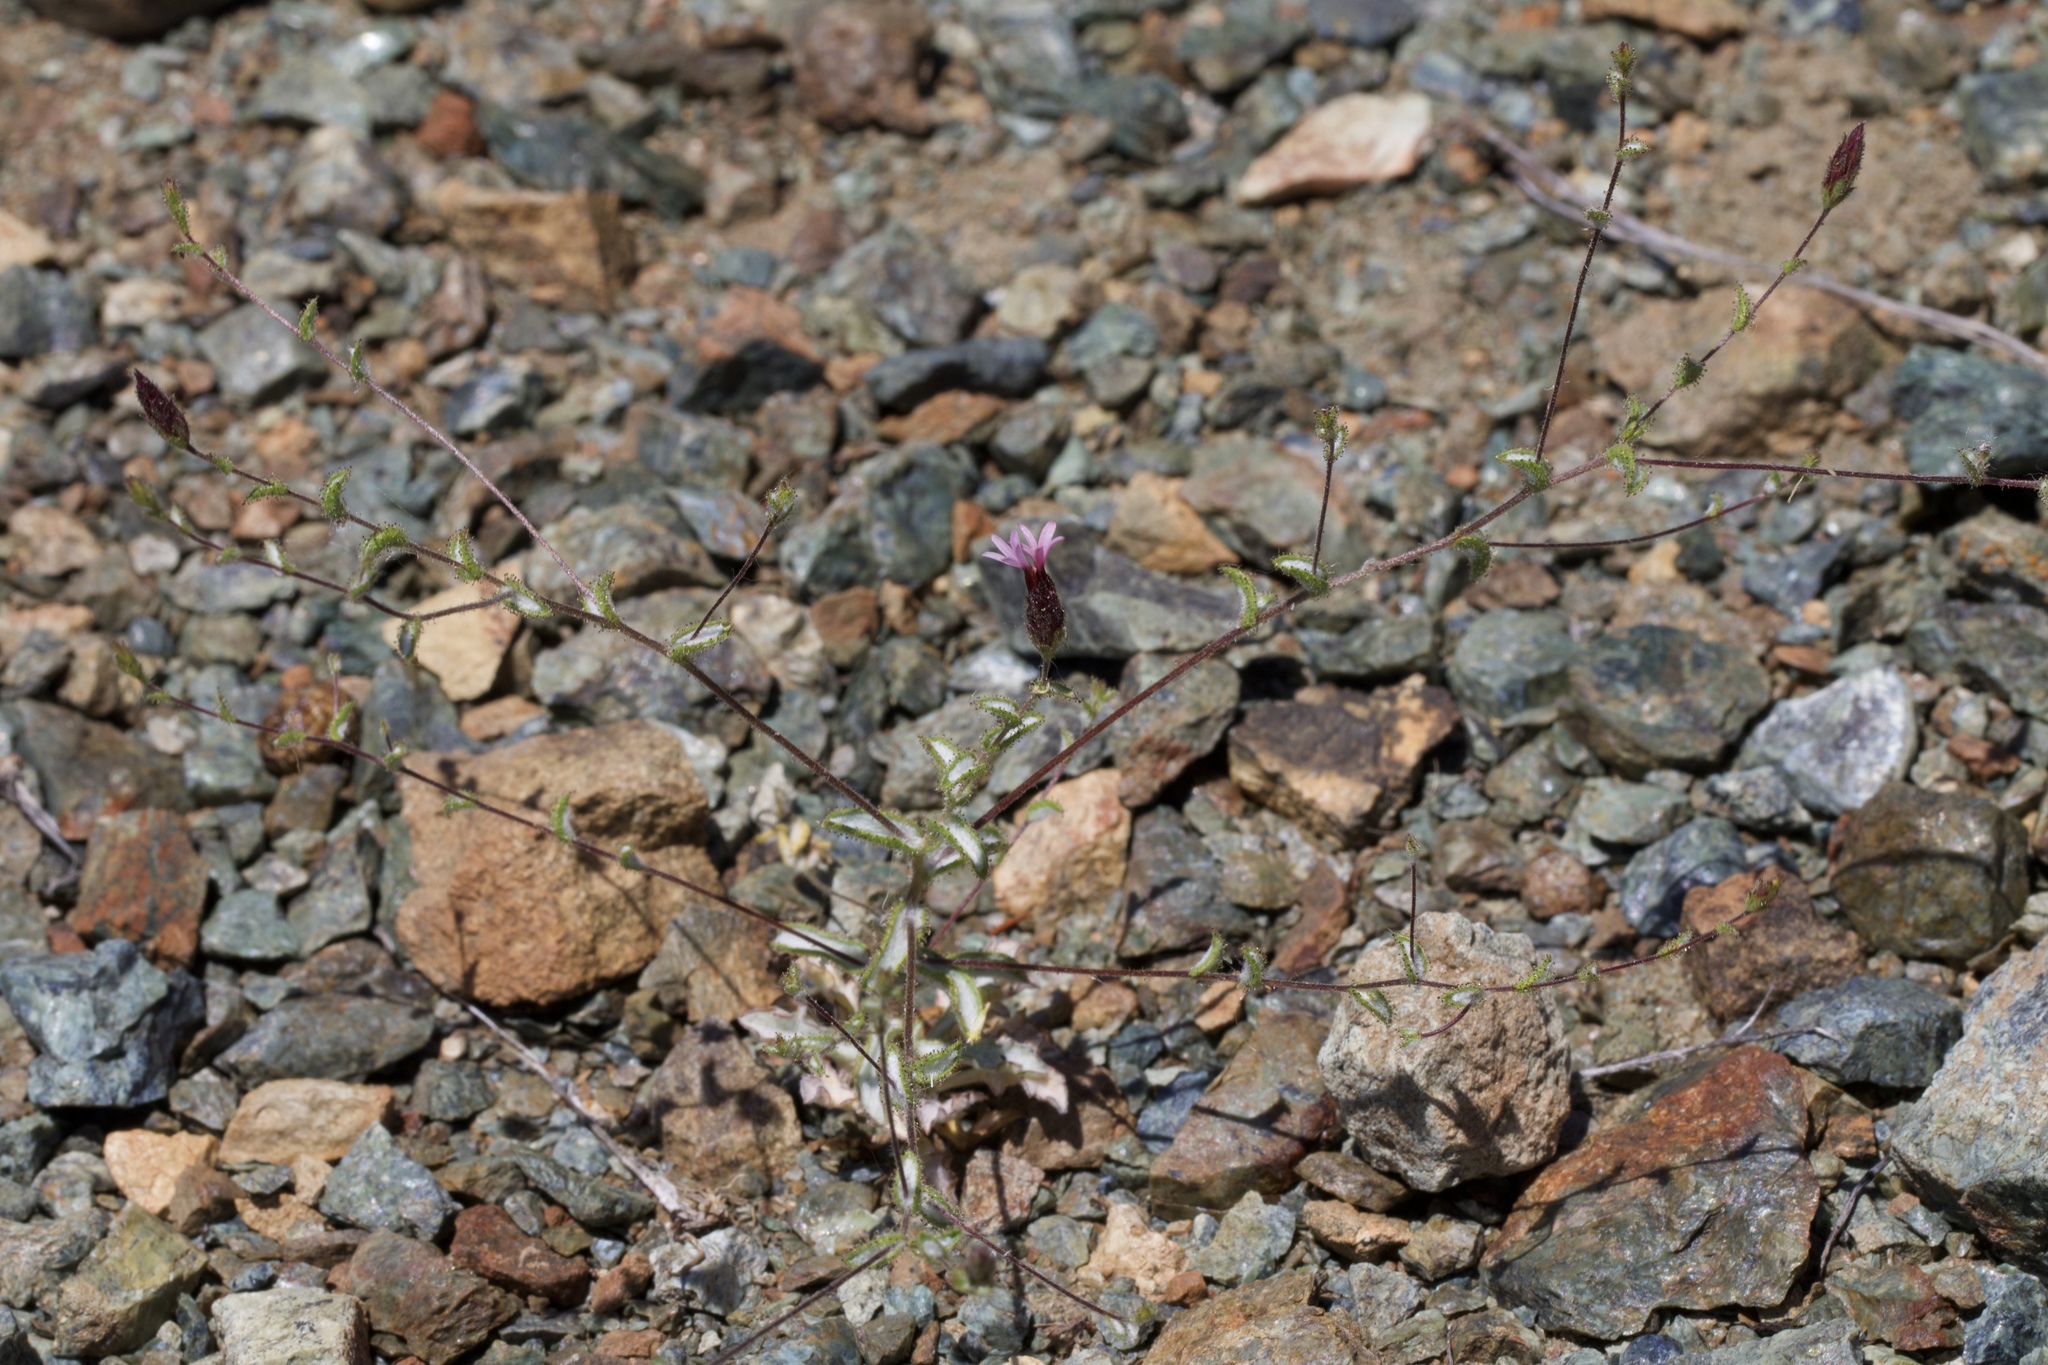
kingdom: Plantae
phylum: Tracheophyta
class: Magnoliopsida
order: Asterales
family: Asteraceae
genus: Lessingia
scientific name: Lessingia ramulosa
